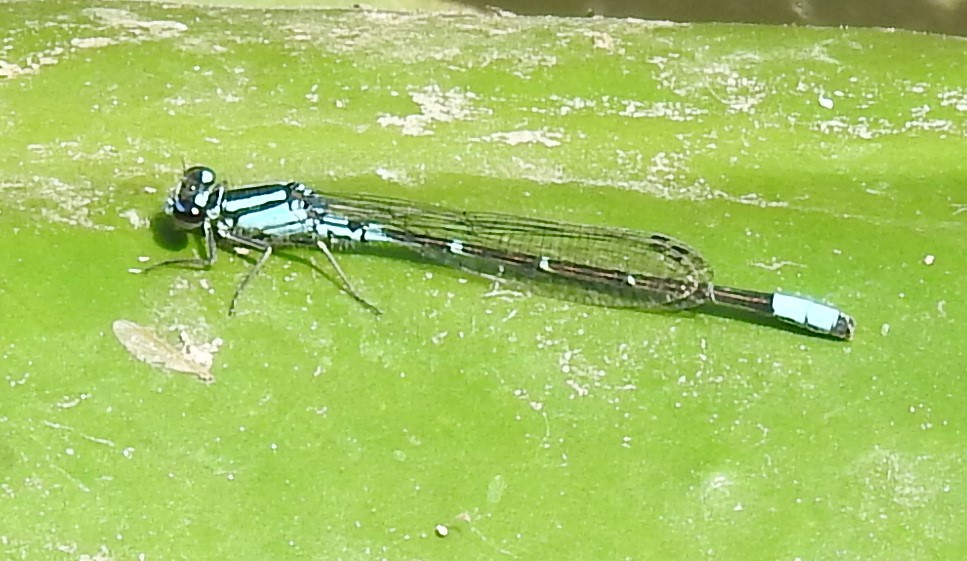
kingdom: Animalia
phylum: Arthropoda
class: Insecta
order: Odonata
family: Coenagrionidae
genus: Enallagma
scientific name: Enallagma geminatum
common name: Skimming bluet
